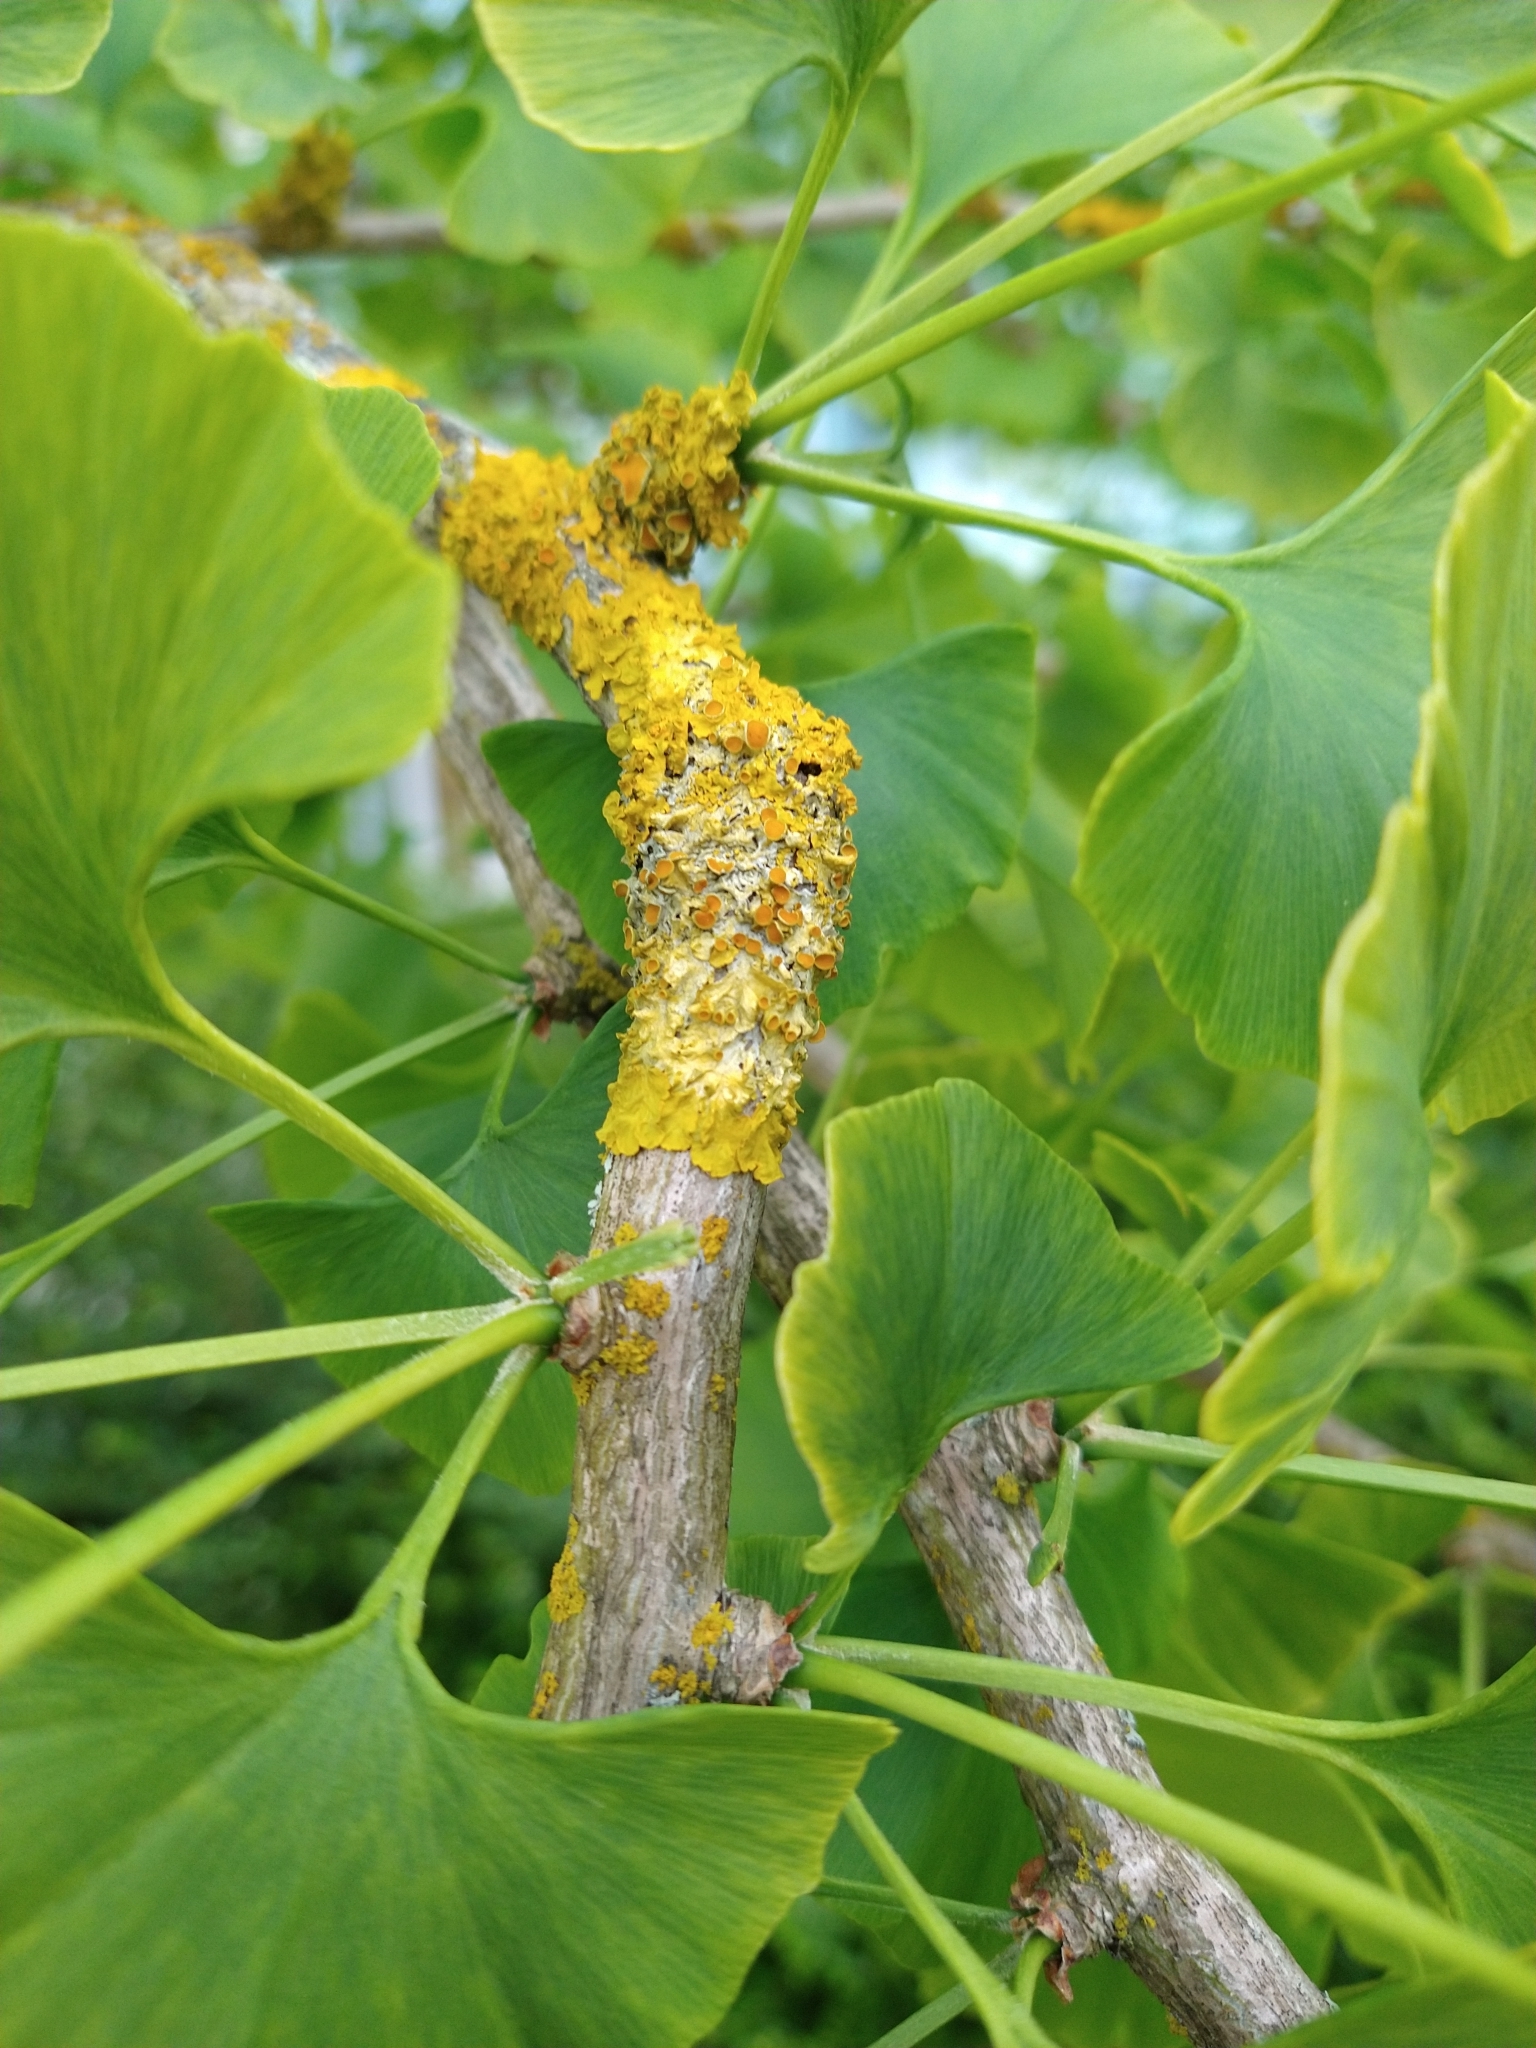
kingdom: Fungi
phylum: Ascomycota
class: Lecanoromycetes
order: Teloschistales
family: Teloschistaceae
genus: Xanthoria
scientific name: Xanthoria parietina
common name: Common orange lichen
